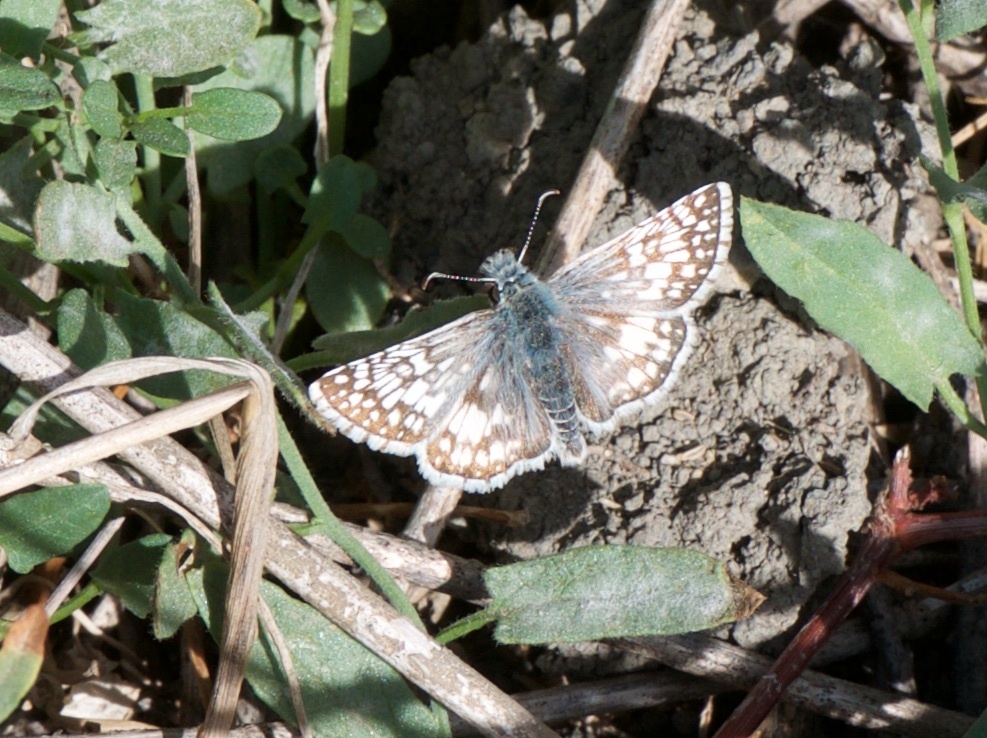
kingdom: Animalia
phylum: Arthropoda
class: Insecta
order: Lepidoptera
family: Hesperiidae
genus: Burnsius
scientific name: Burnsius communis
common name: Common checkered-skipper
